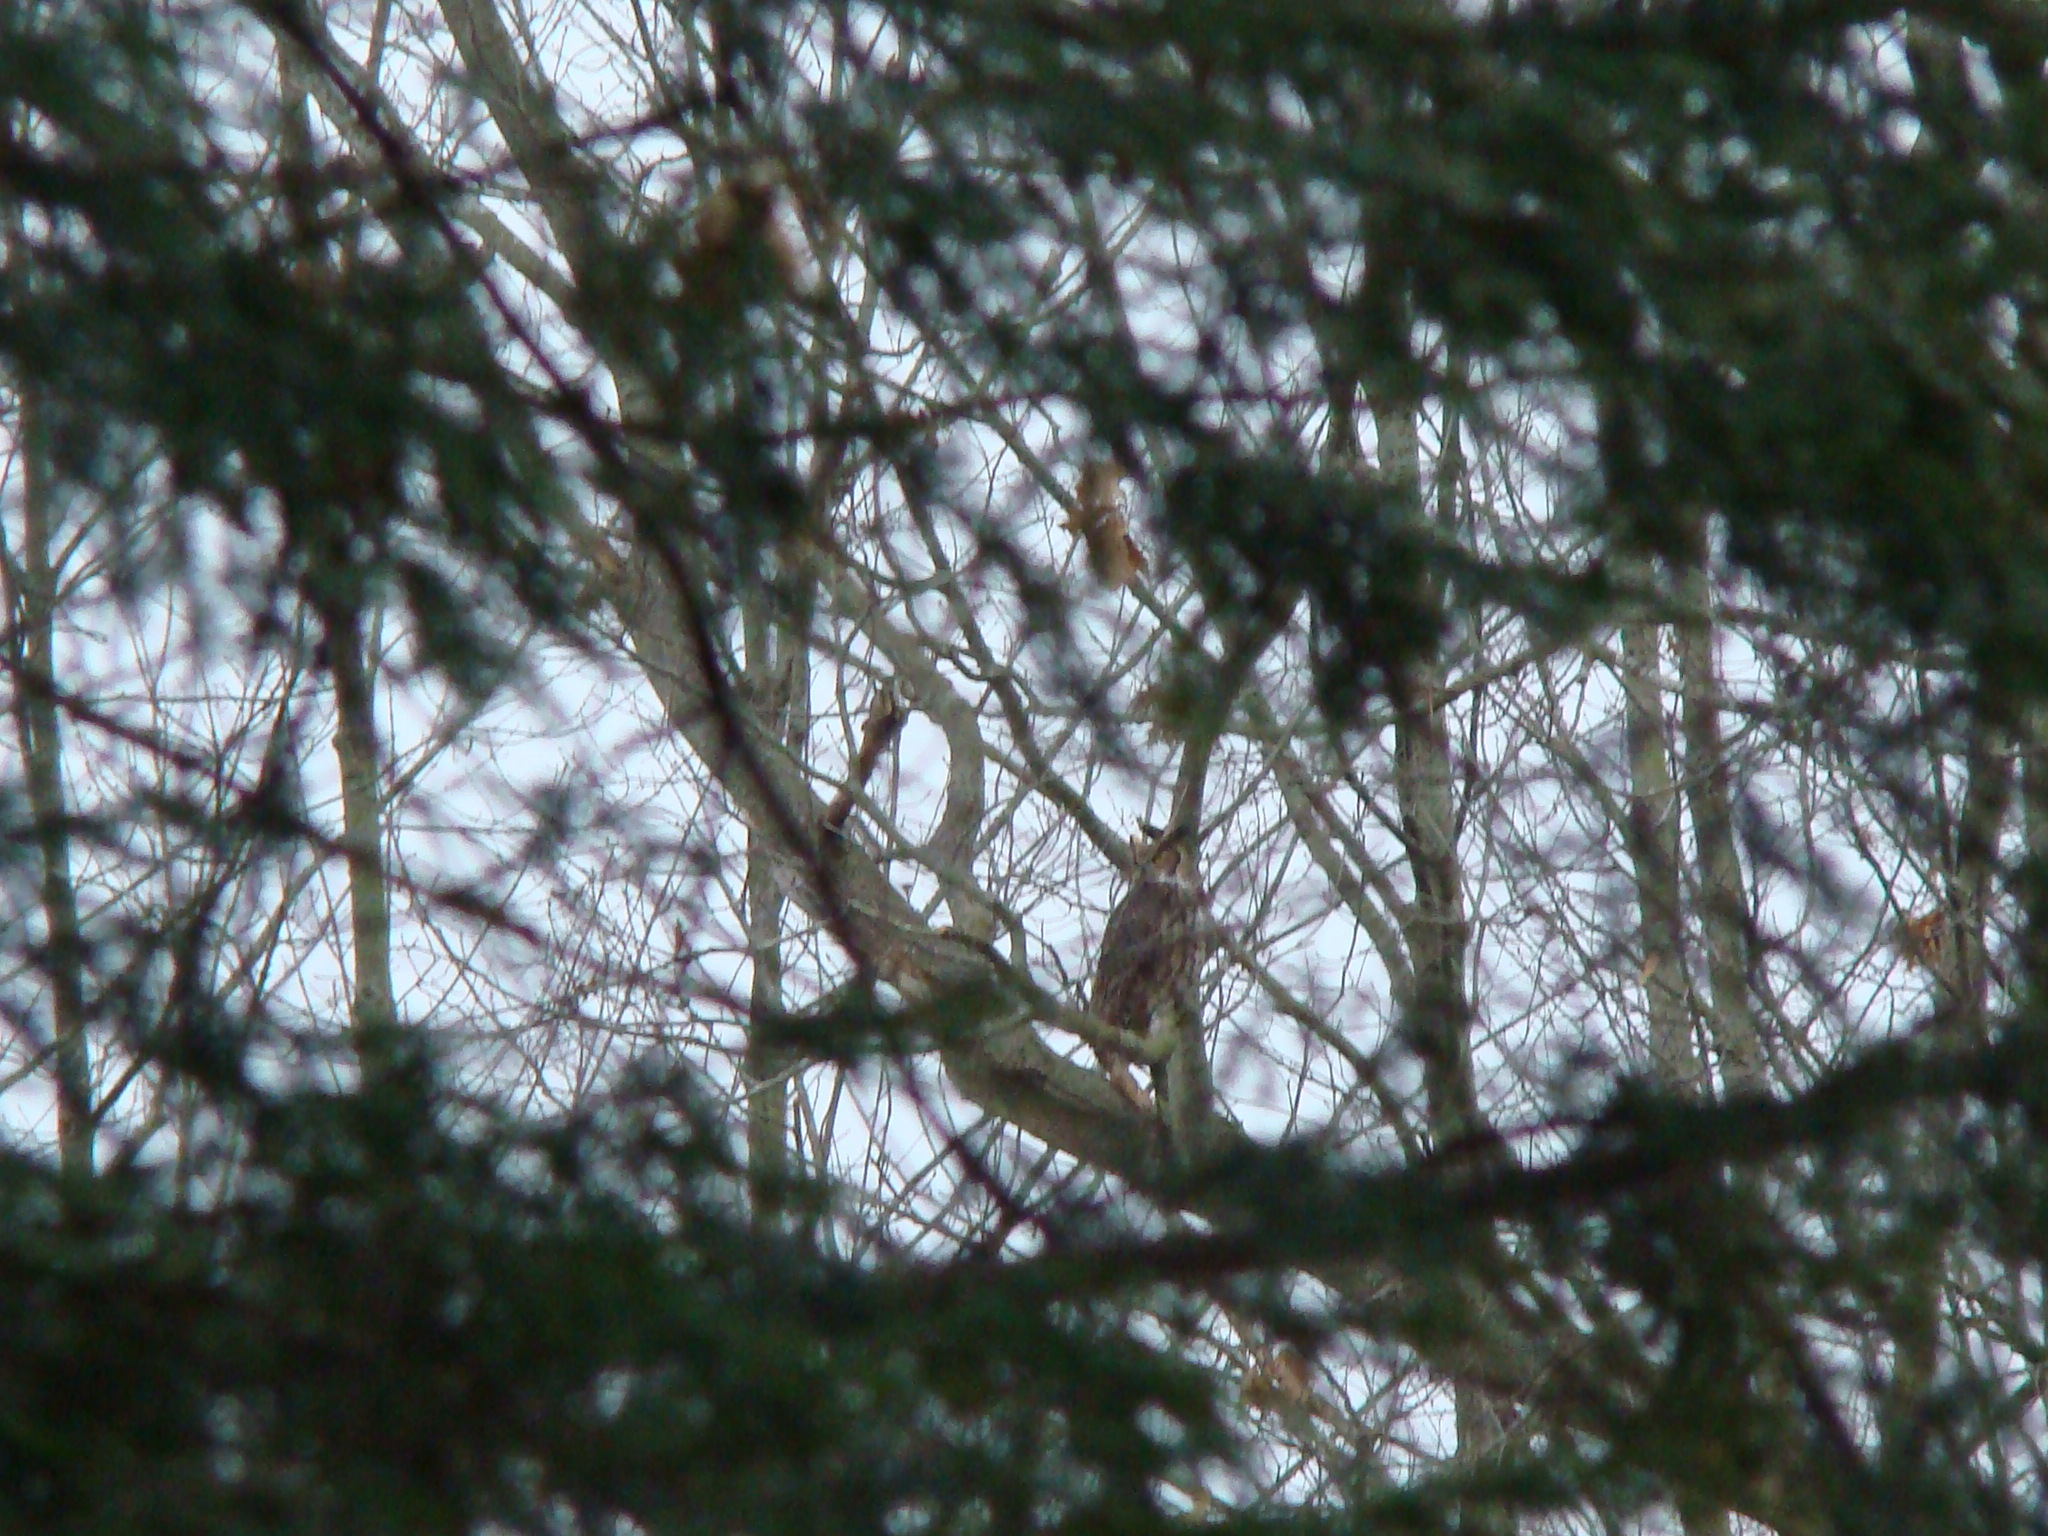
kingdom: Animalia
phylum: Chordata
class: Aves
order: Strigiformes
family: Strigidae
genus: Bubo
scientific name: Bubo virginianus
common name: Great horned owl
